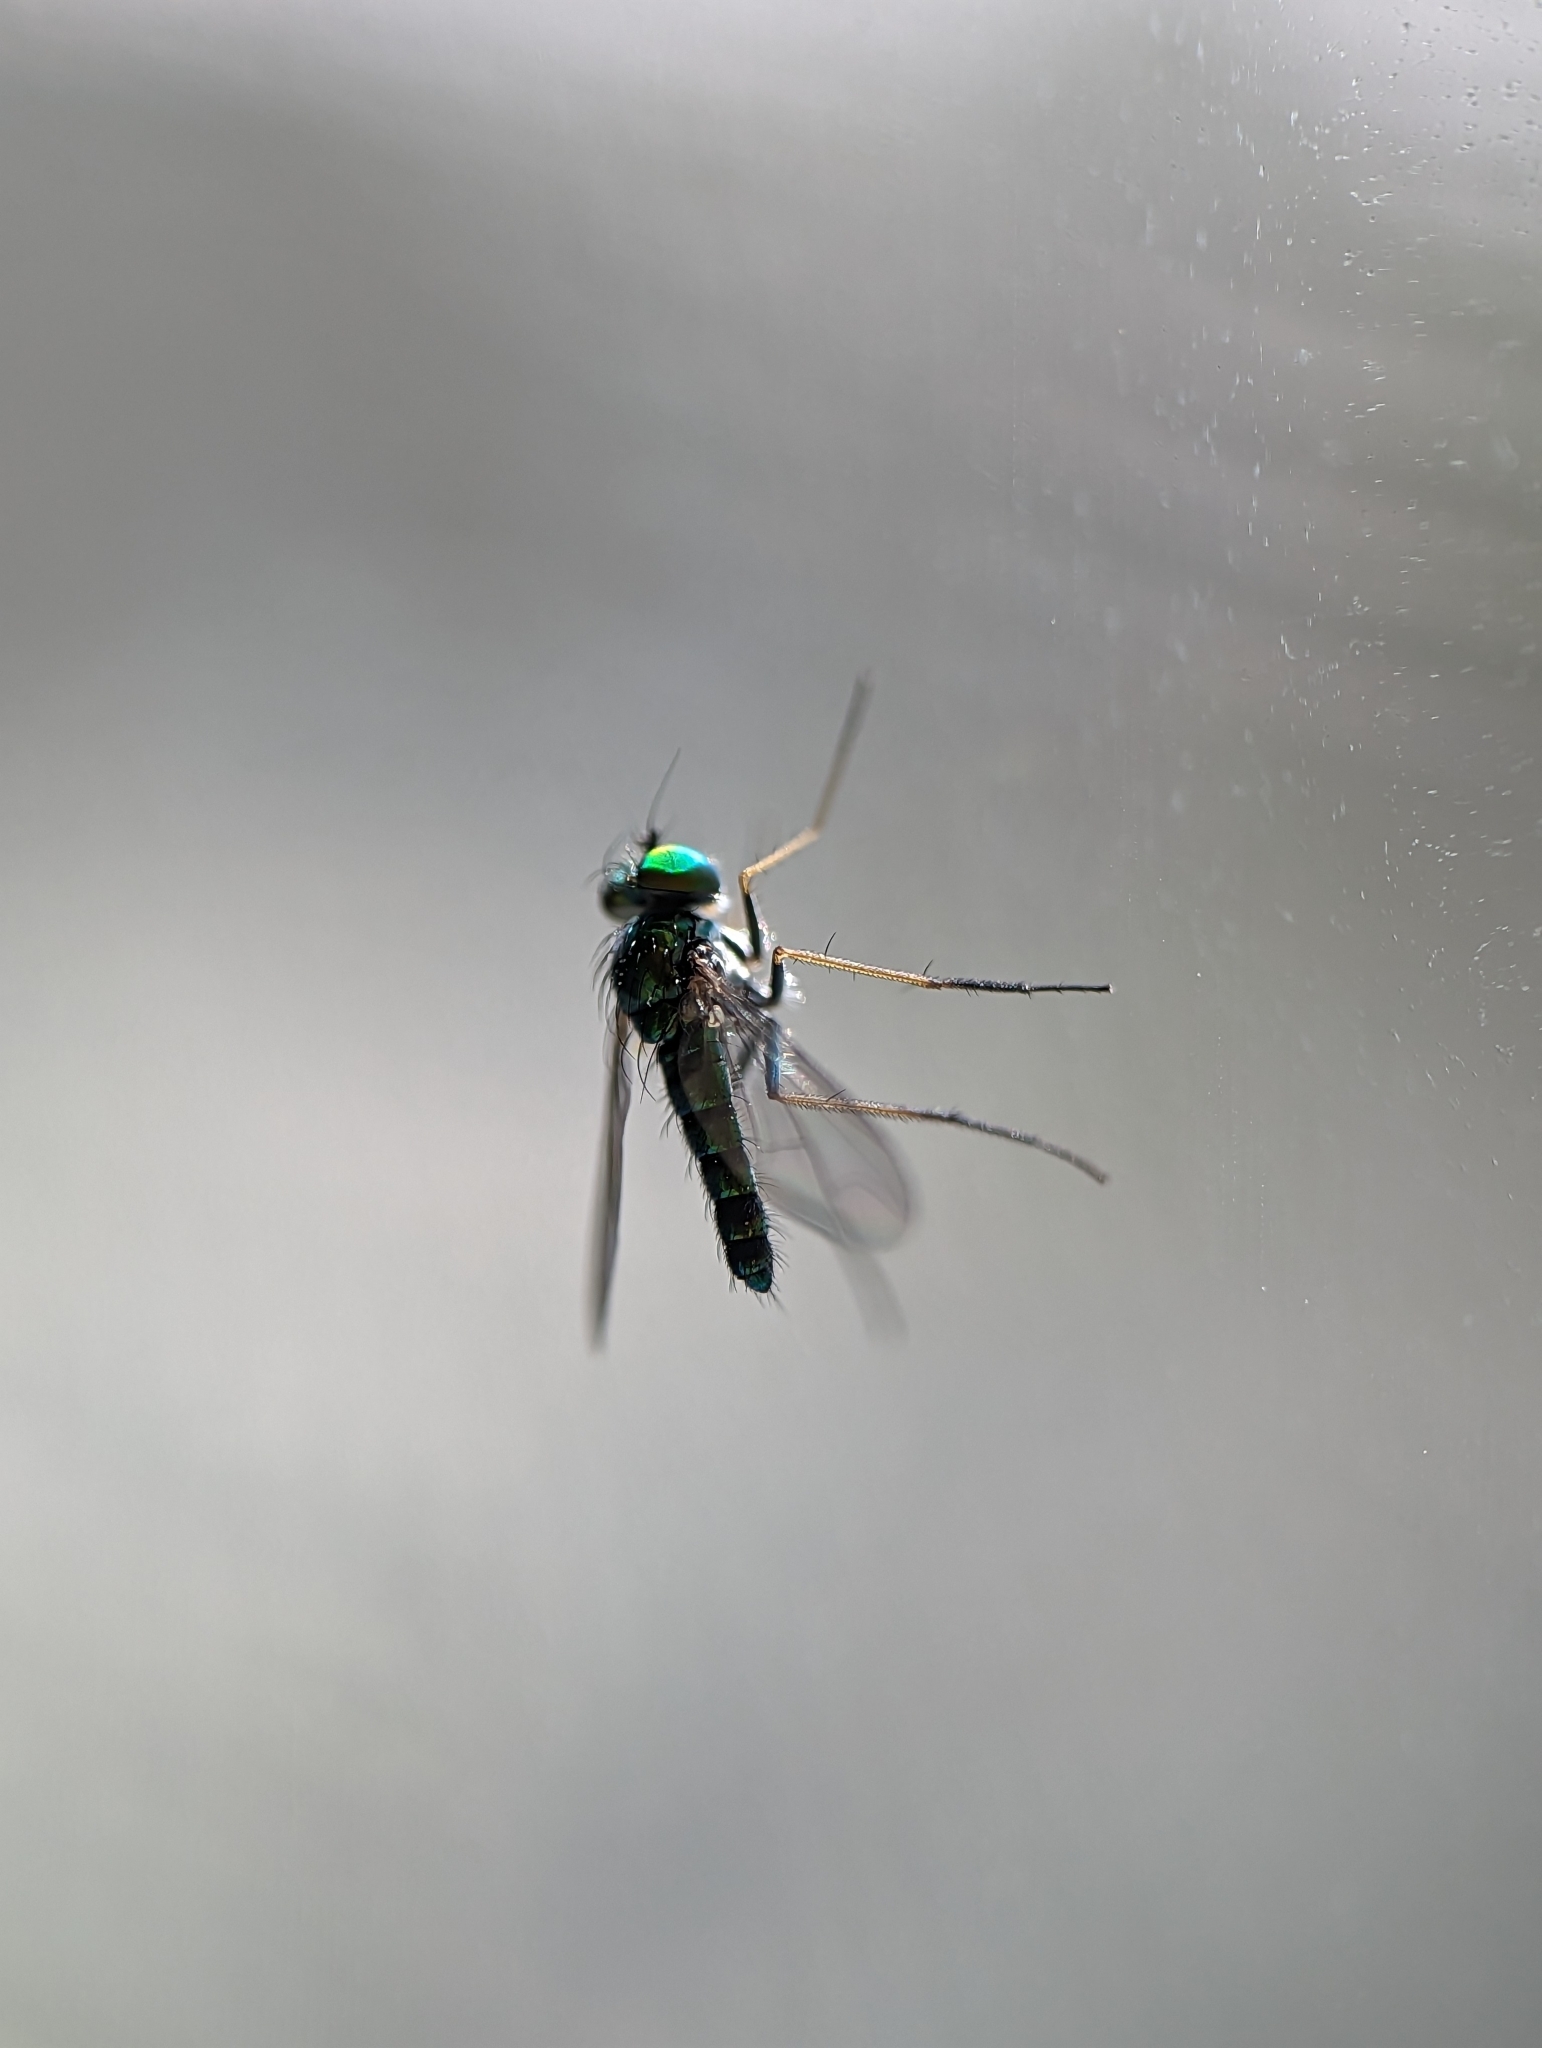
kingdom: Animalia
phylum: Arthropoda
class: Insecta
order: Diptera
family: Dolichopodidae
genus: Condylostylus
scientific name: Condylostylus connectans
